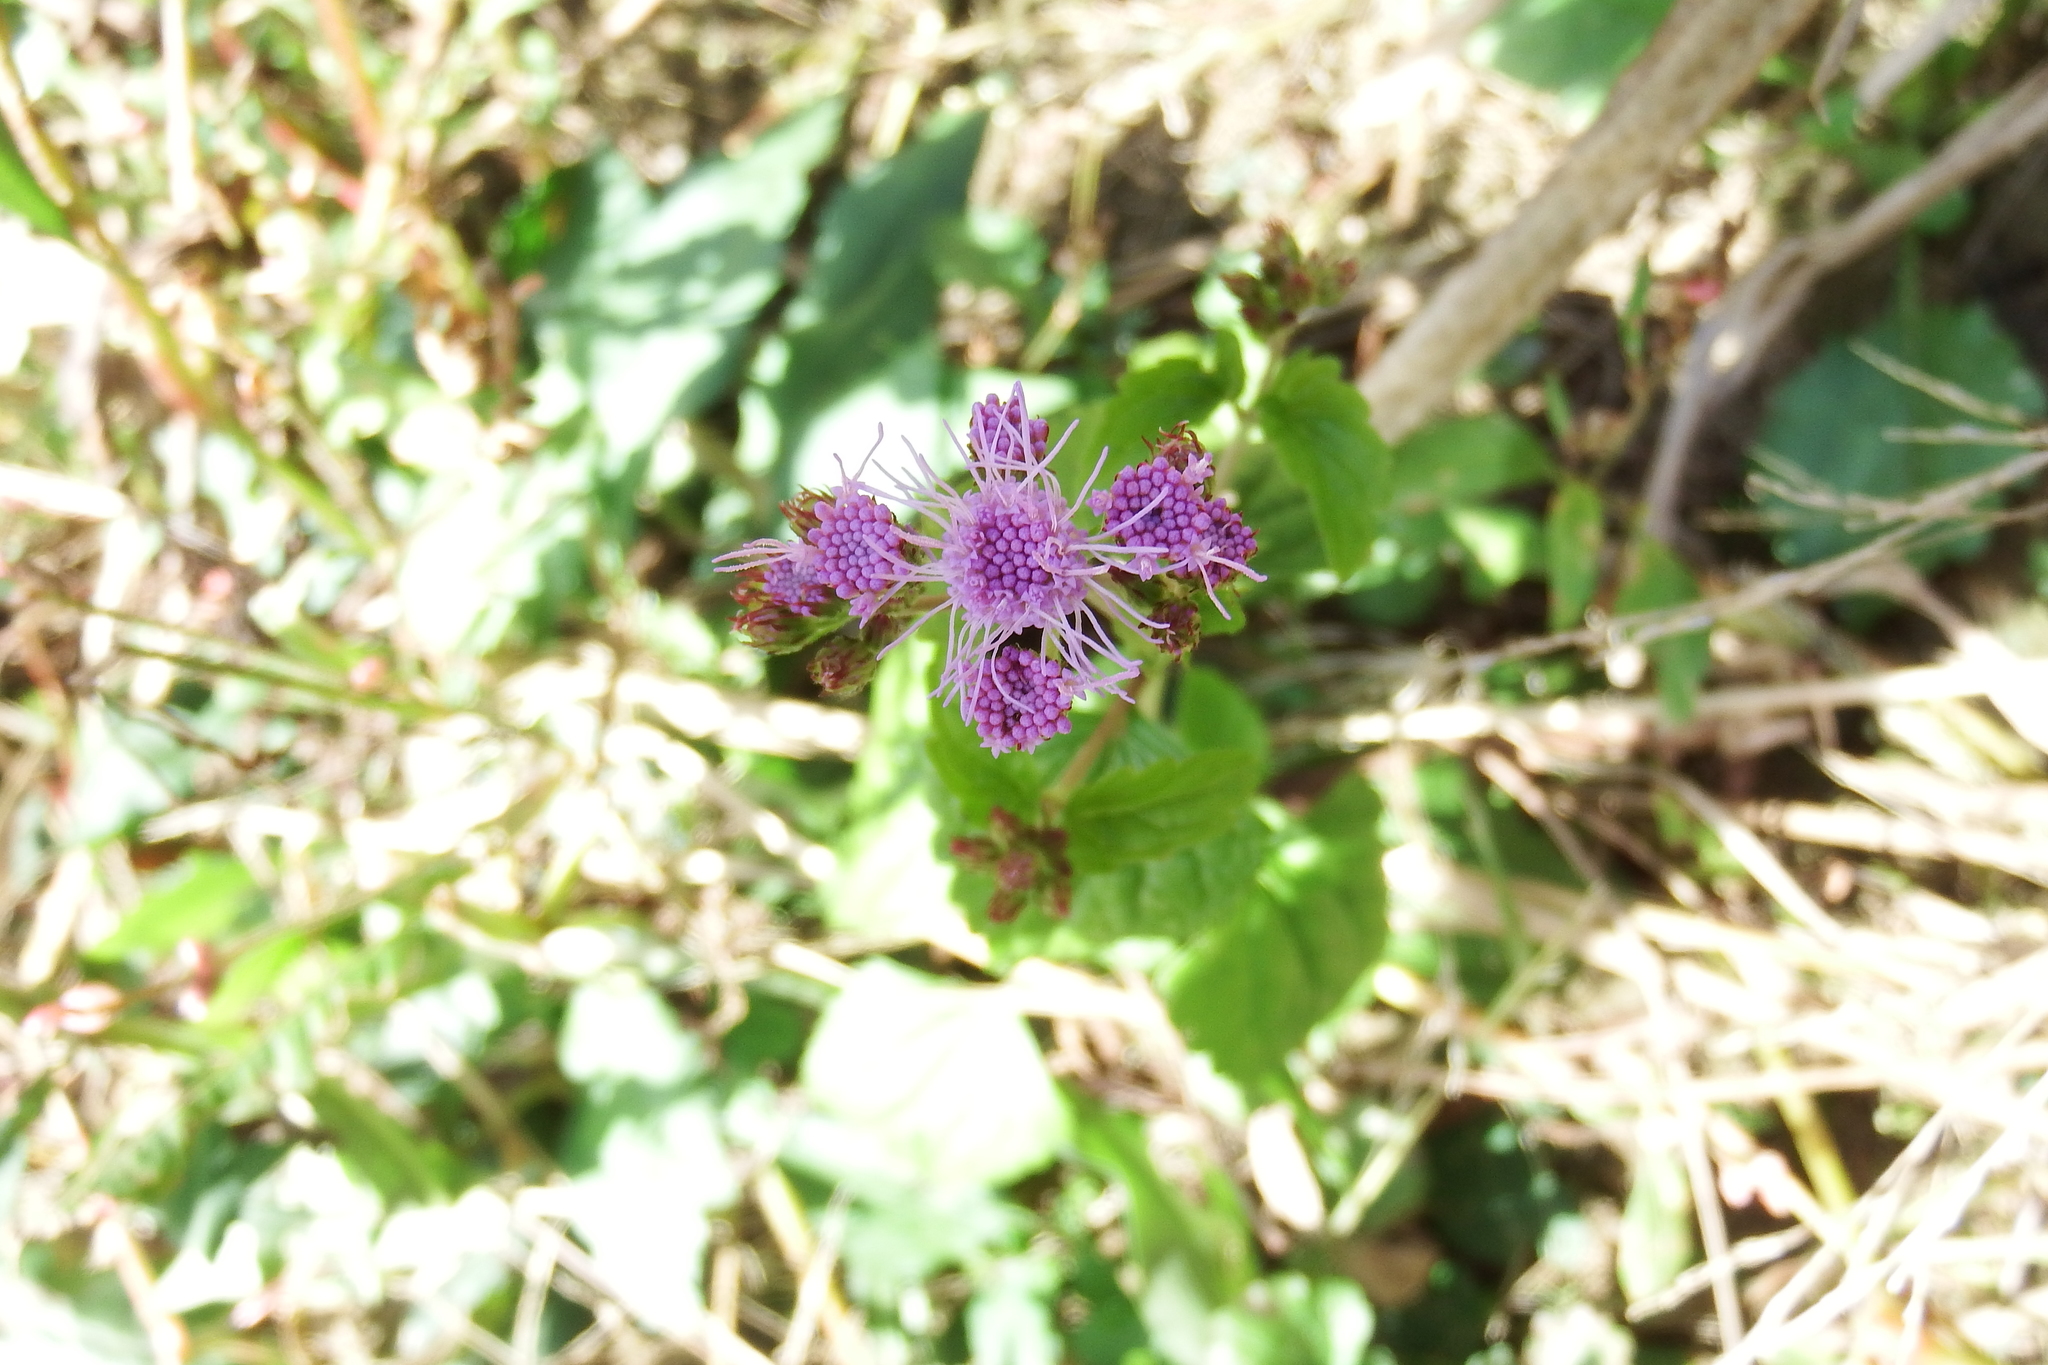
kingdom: Plantae
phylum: Tracheophyta
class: Magnoliopsida
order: Asterales
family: Asteraceae
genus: Conoclinium
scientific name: Conoclinium coelestinum
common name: Blue mistflower
